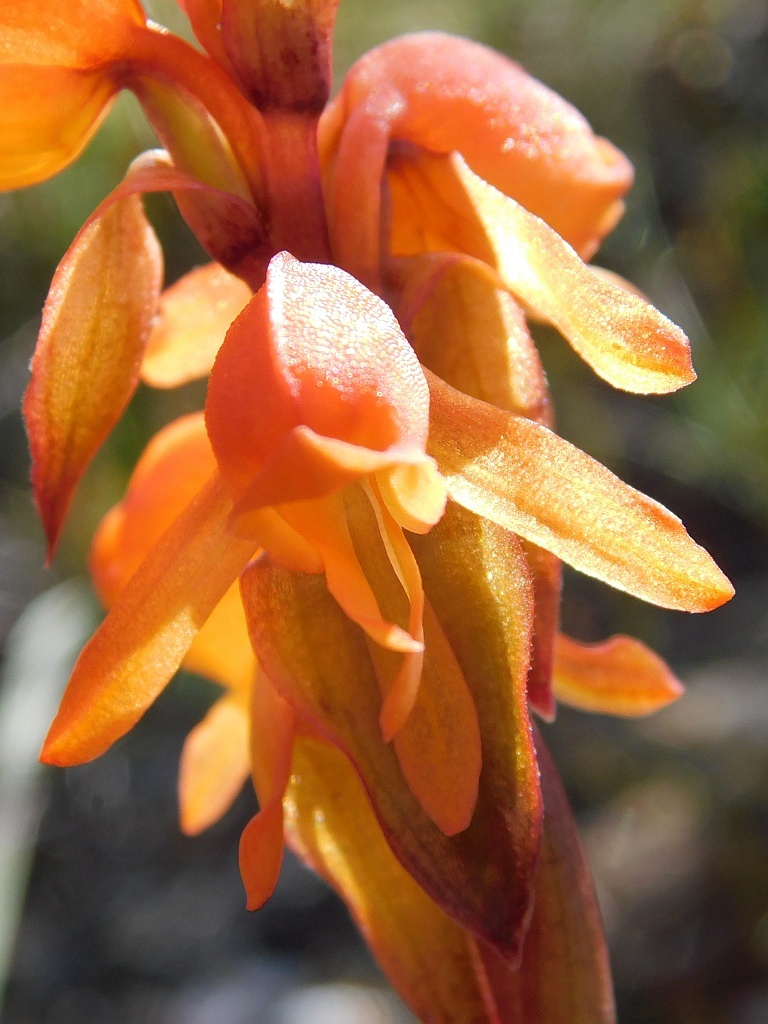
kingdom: Plantae
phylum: Tracheophyta
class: Liliopsida
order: Asparagales
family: Orchidaceae
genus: Satyrium
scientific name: Satyrium coriifolium
